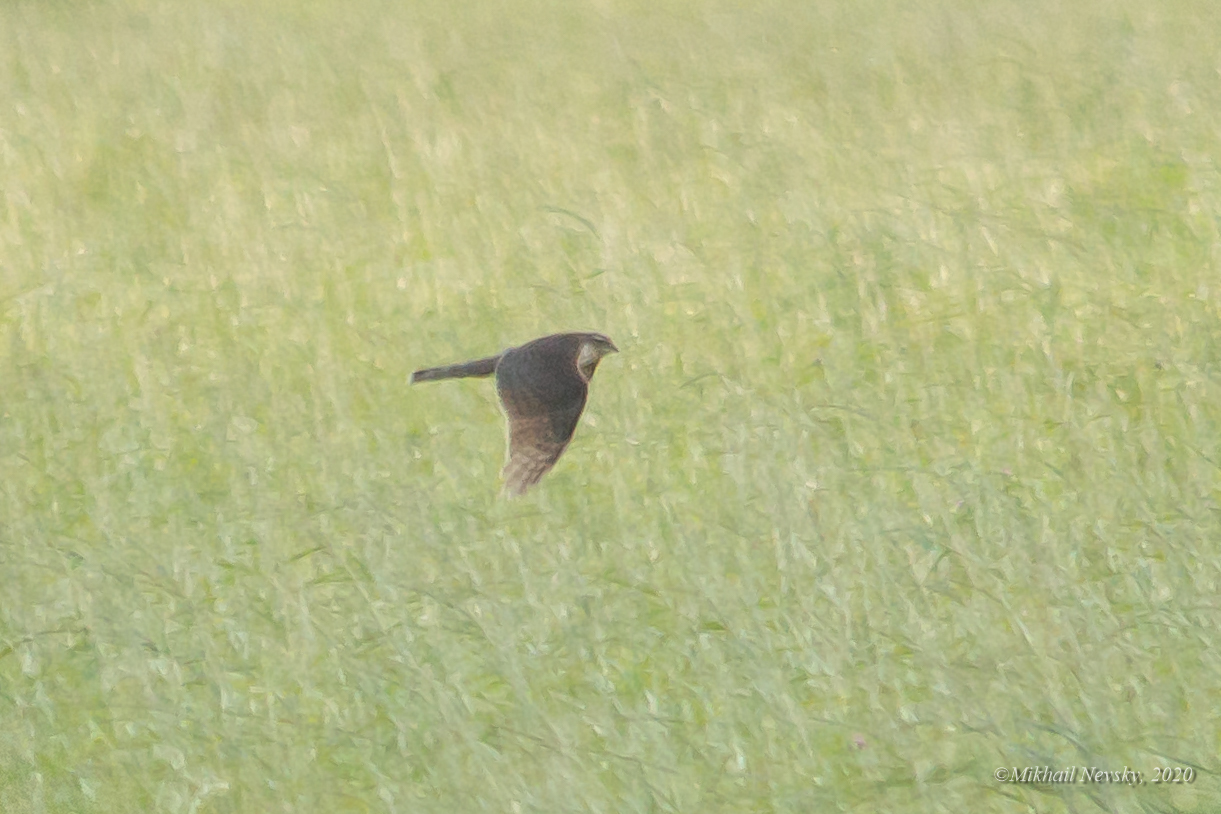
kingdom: Animalia
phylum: Chordata
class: Aves
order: Accipitriformes
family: Accipitridae
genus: Accipiter
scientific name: Accipiter nisus
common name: Eurasian sparrowhawk
